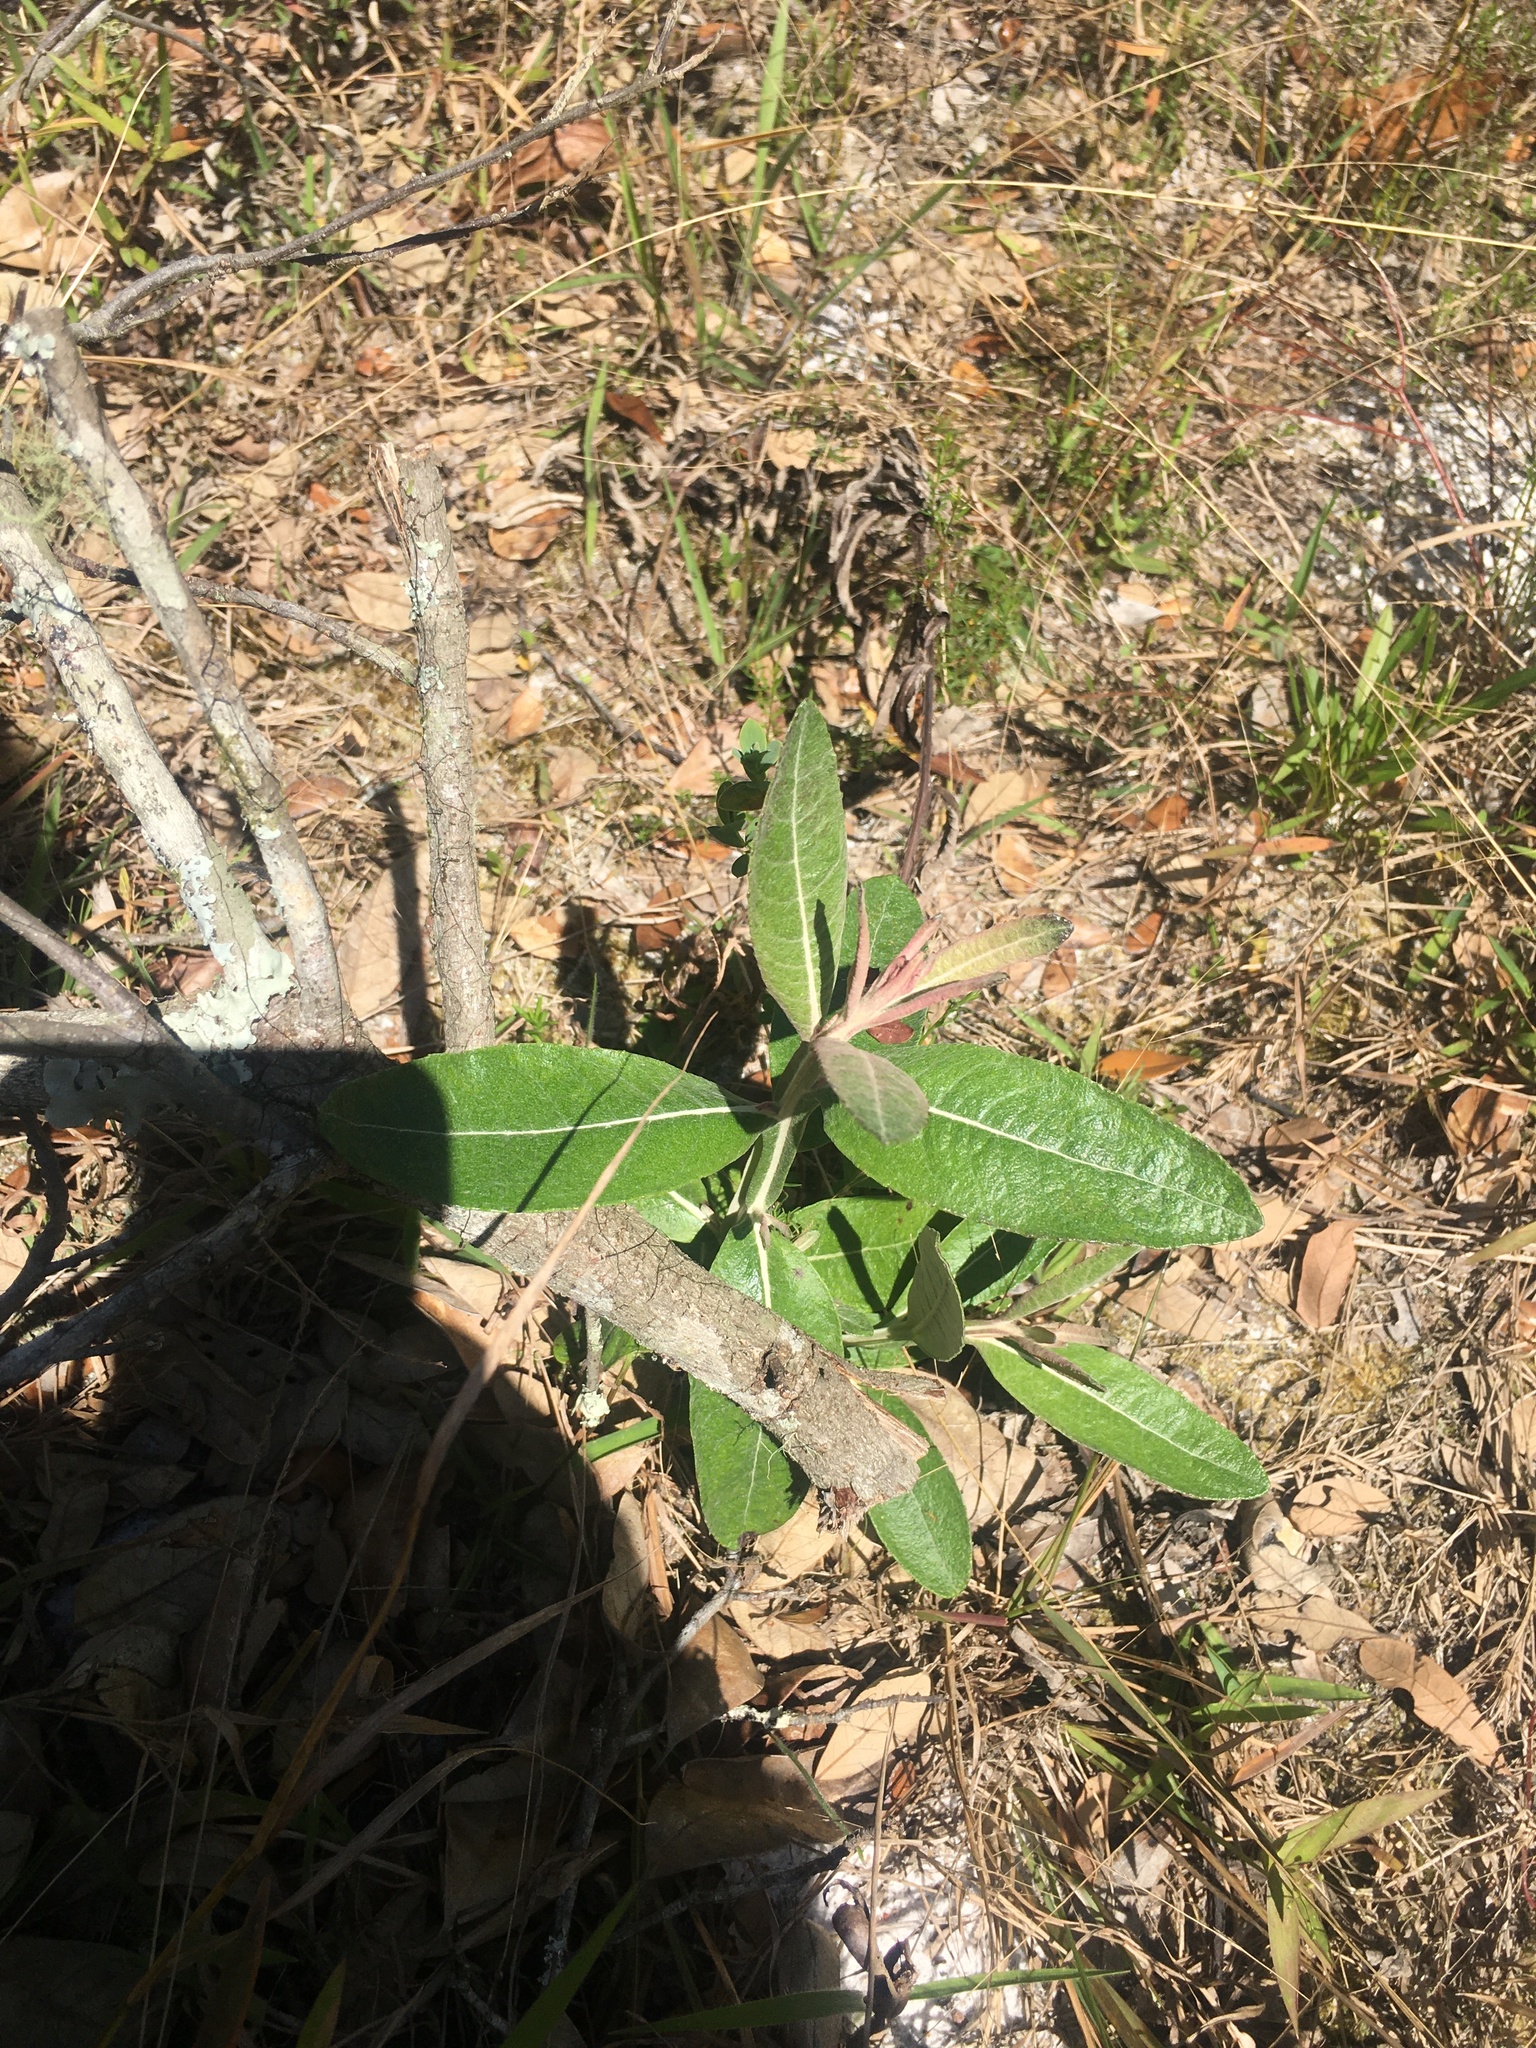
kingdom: Plantae
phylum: Tracheophyta
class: Magnoliopsida
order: Asterales
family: Asteraceae
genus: Pterocaulon
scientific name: Pterocaulon pycnostachyum
